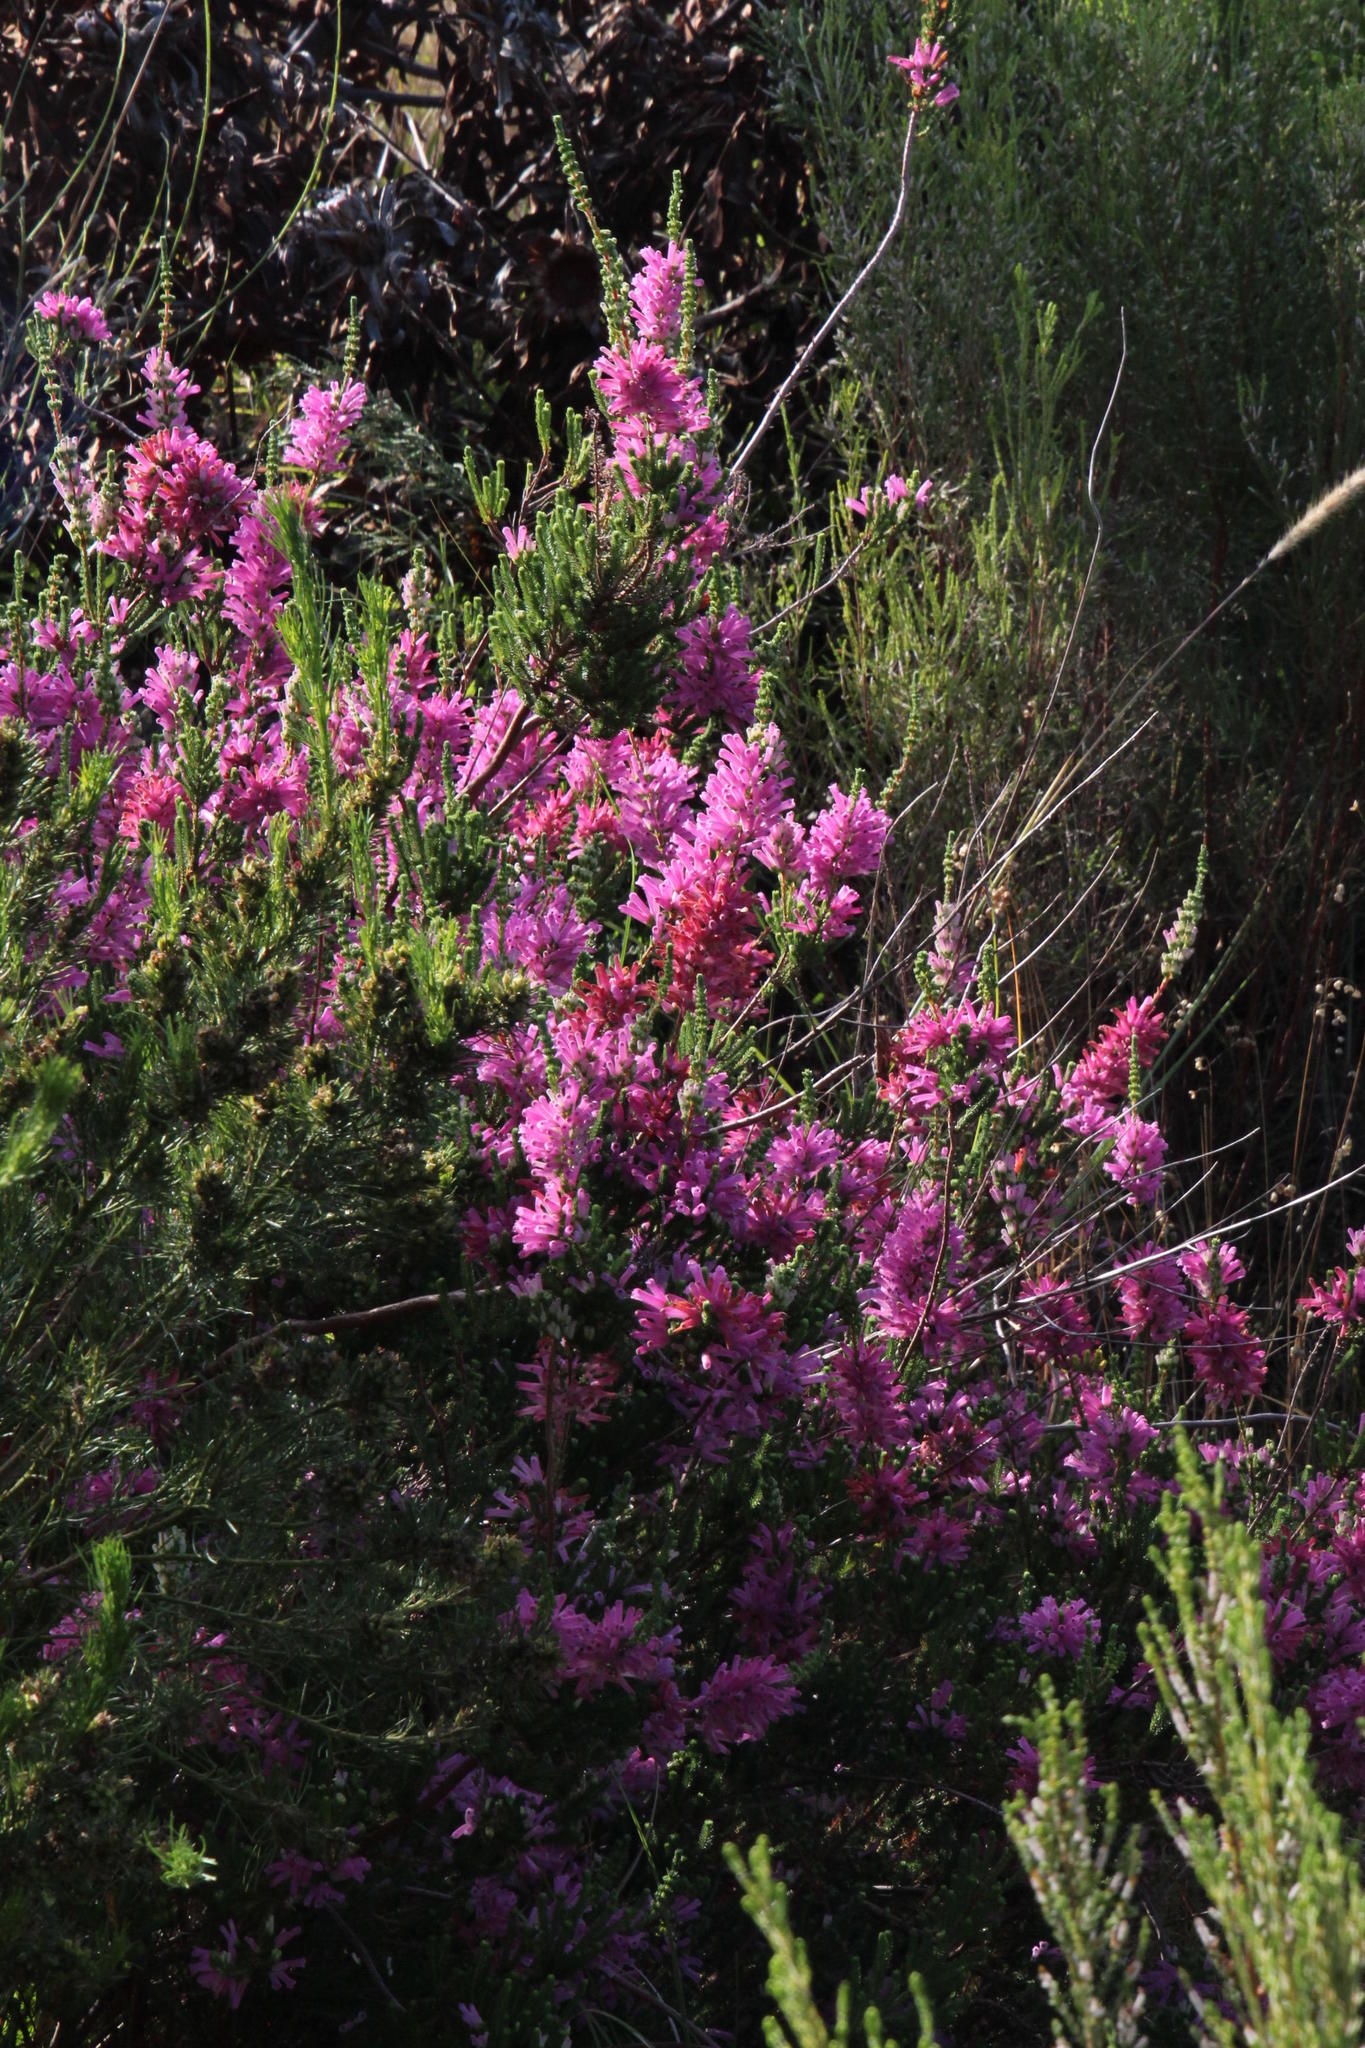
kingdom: Plantae
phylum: Tracheophyta
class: Magnoliopsida
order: Ericales
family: Ericaceae
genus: Erica
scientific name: Erica verticillata
